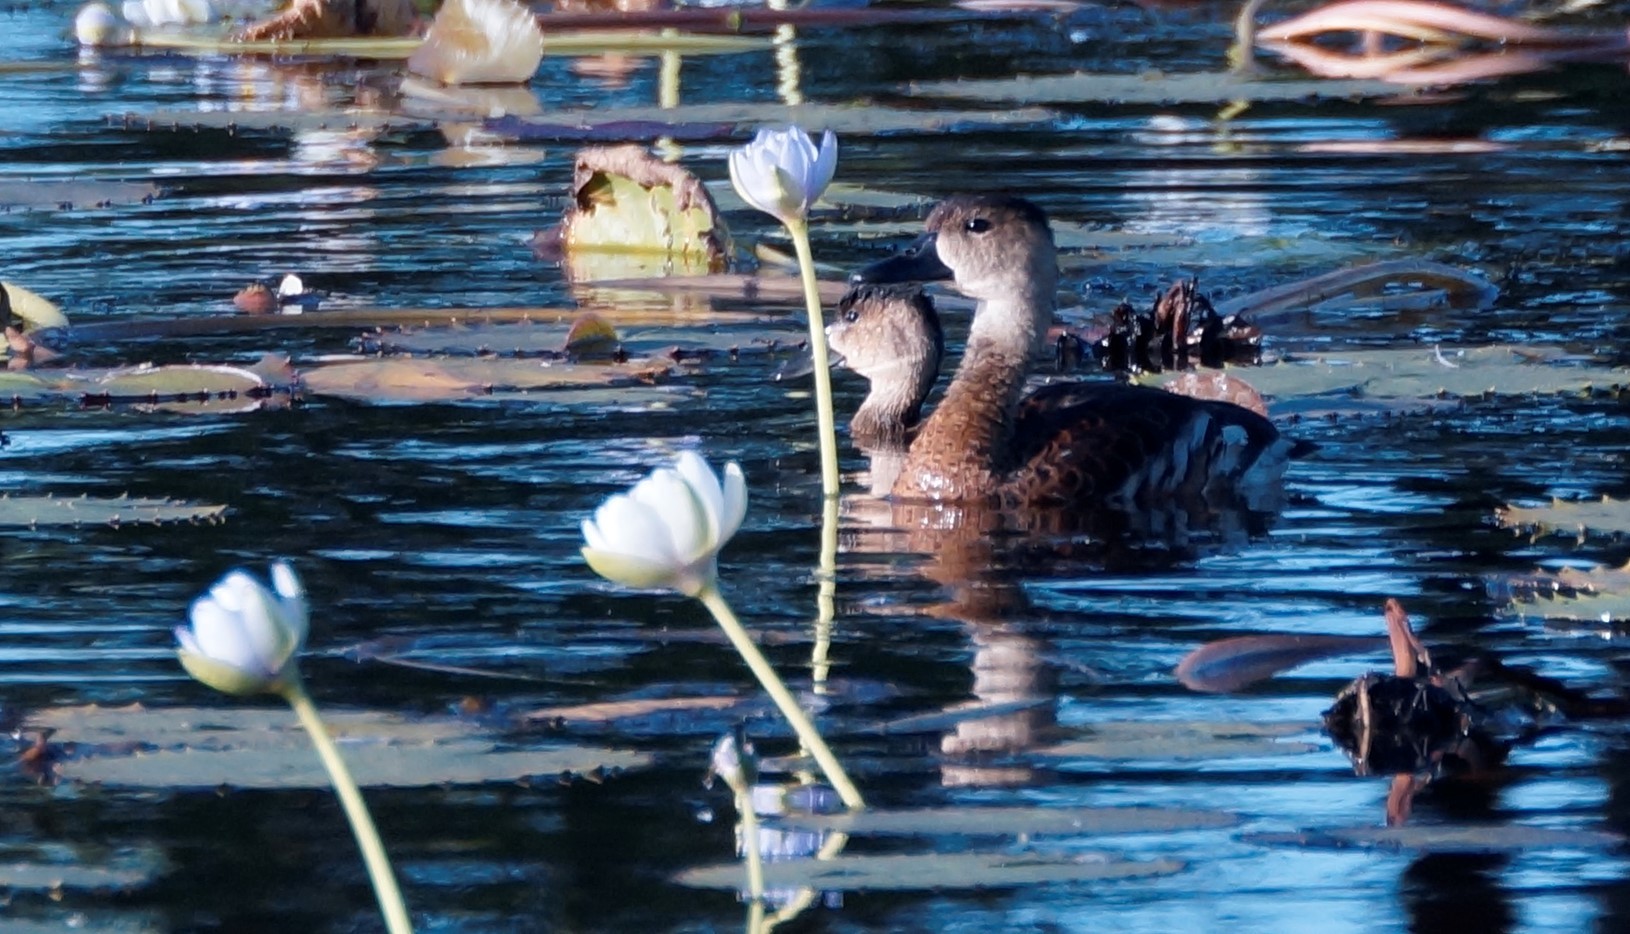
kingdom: Animalia
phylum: Chordata
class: Aves
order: Anseriformes
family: Anatidae
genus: Dendrocygna
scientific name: Dendrocygna arcuata
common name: Wandering whistling-duck
